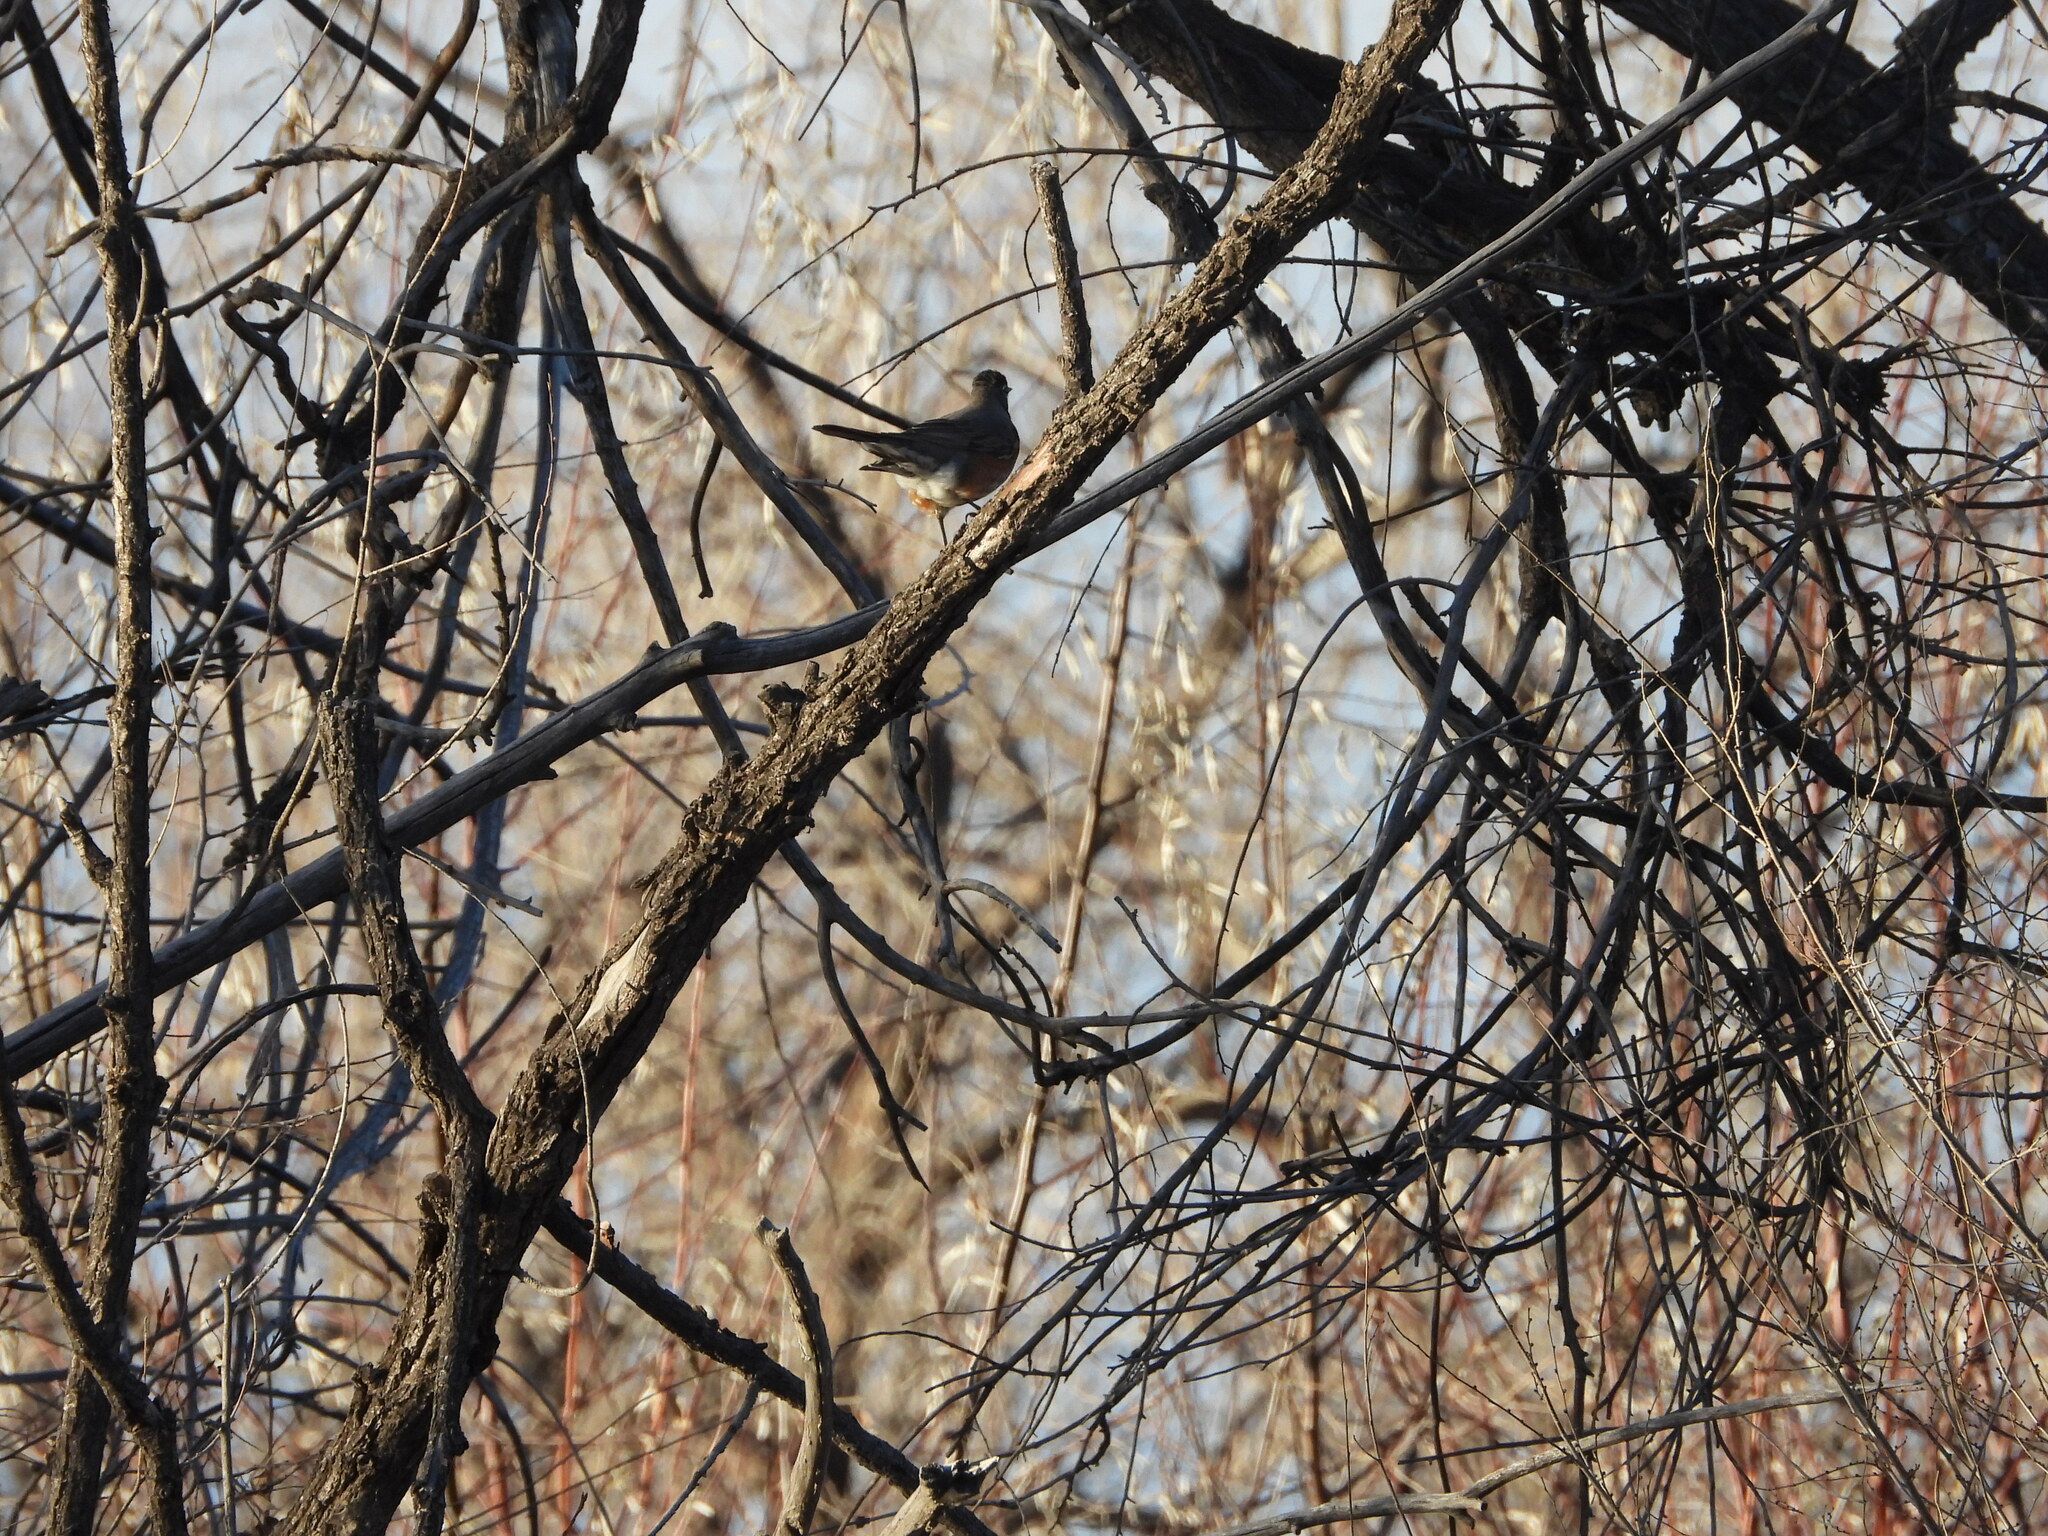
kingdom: Animalia
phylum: Chordata
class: Aves
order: Passeriformes
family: Turdidae
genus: Turdus
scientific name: Turdus migratorius
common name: American robin
